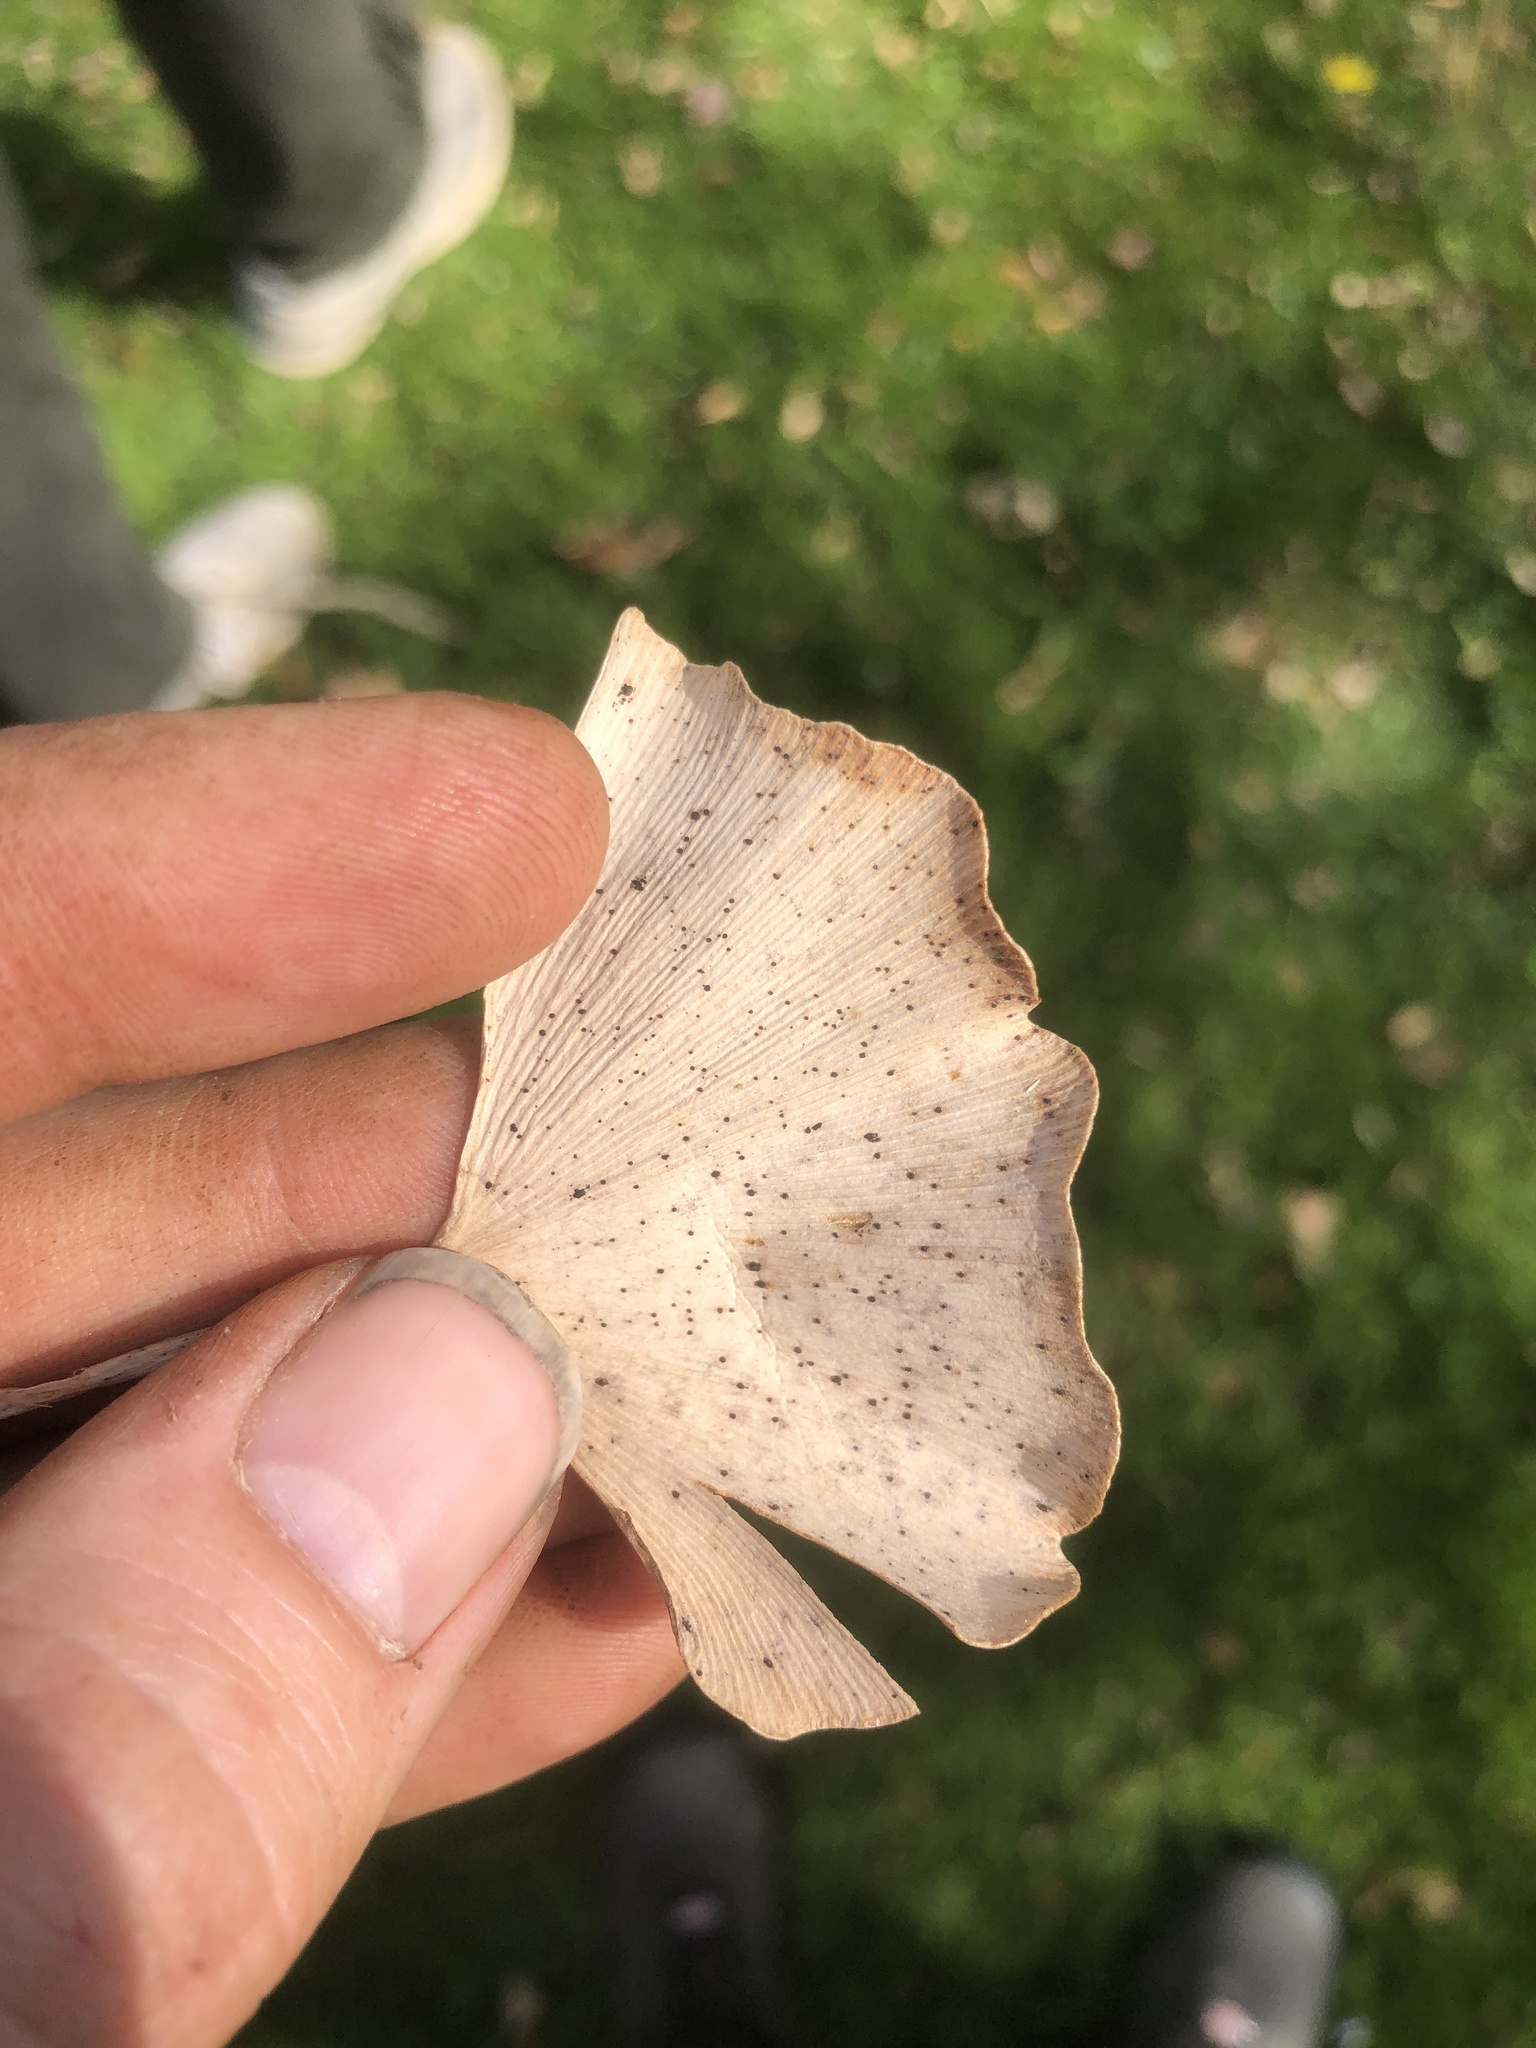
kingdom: Fungi
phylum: Basidiomycota
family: Bartheletiaceae
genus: Bartheletia
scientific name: Bartheletia paradoxa
